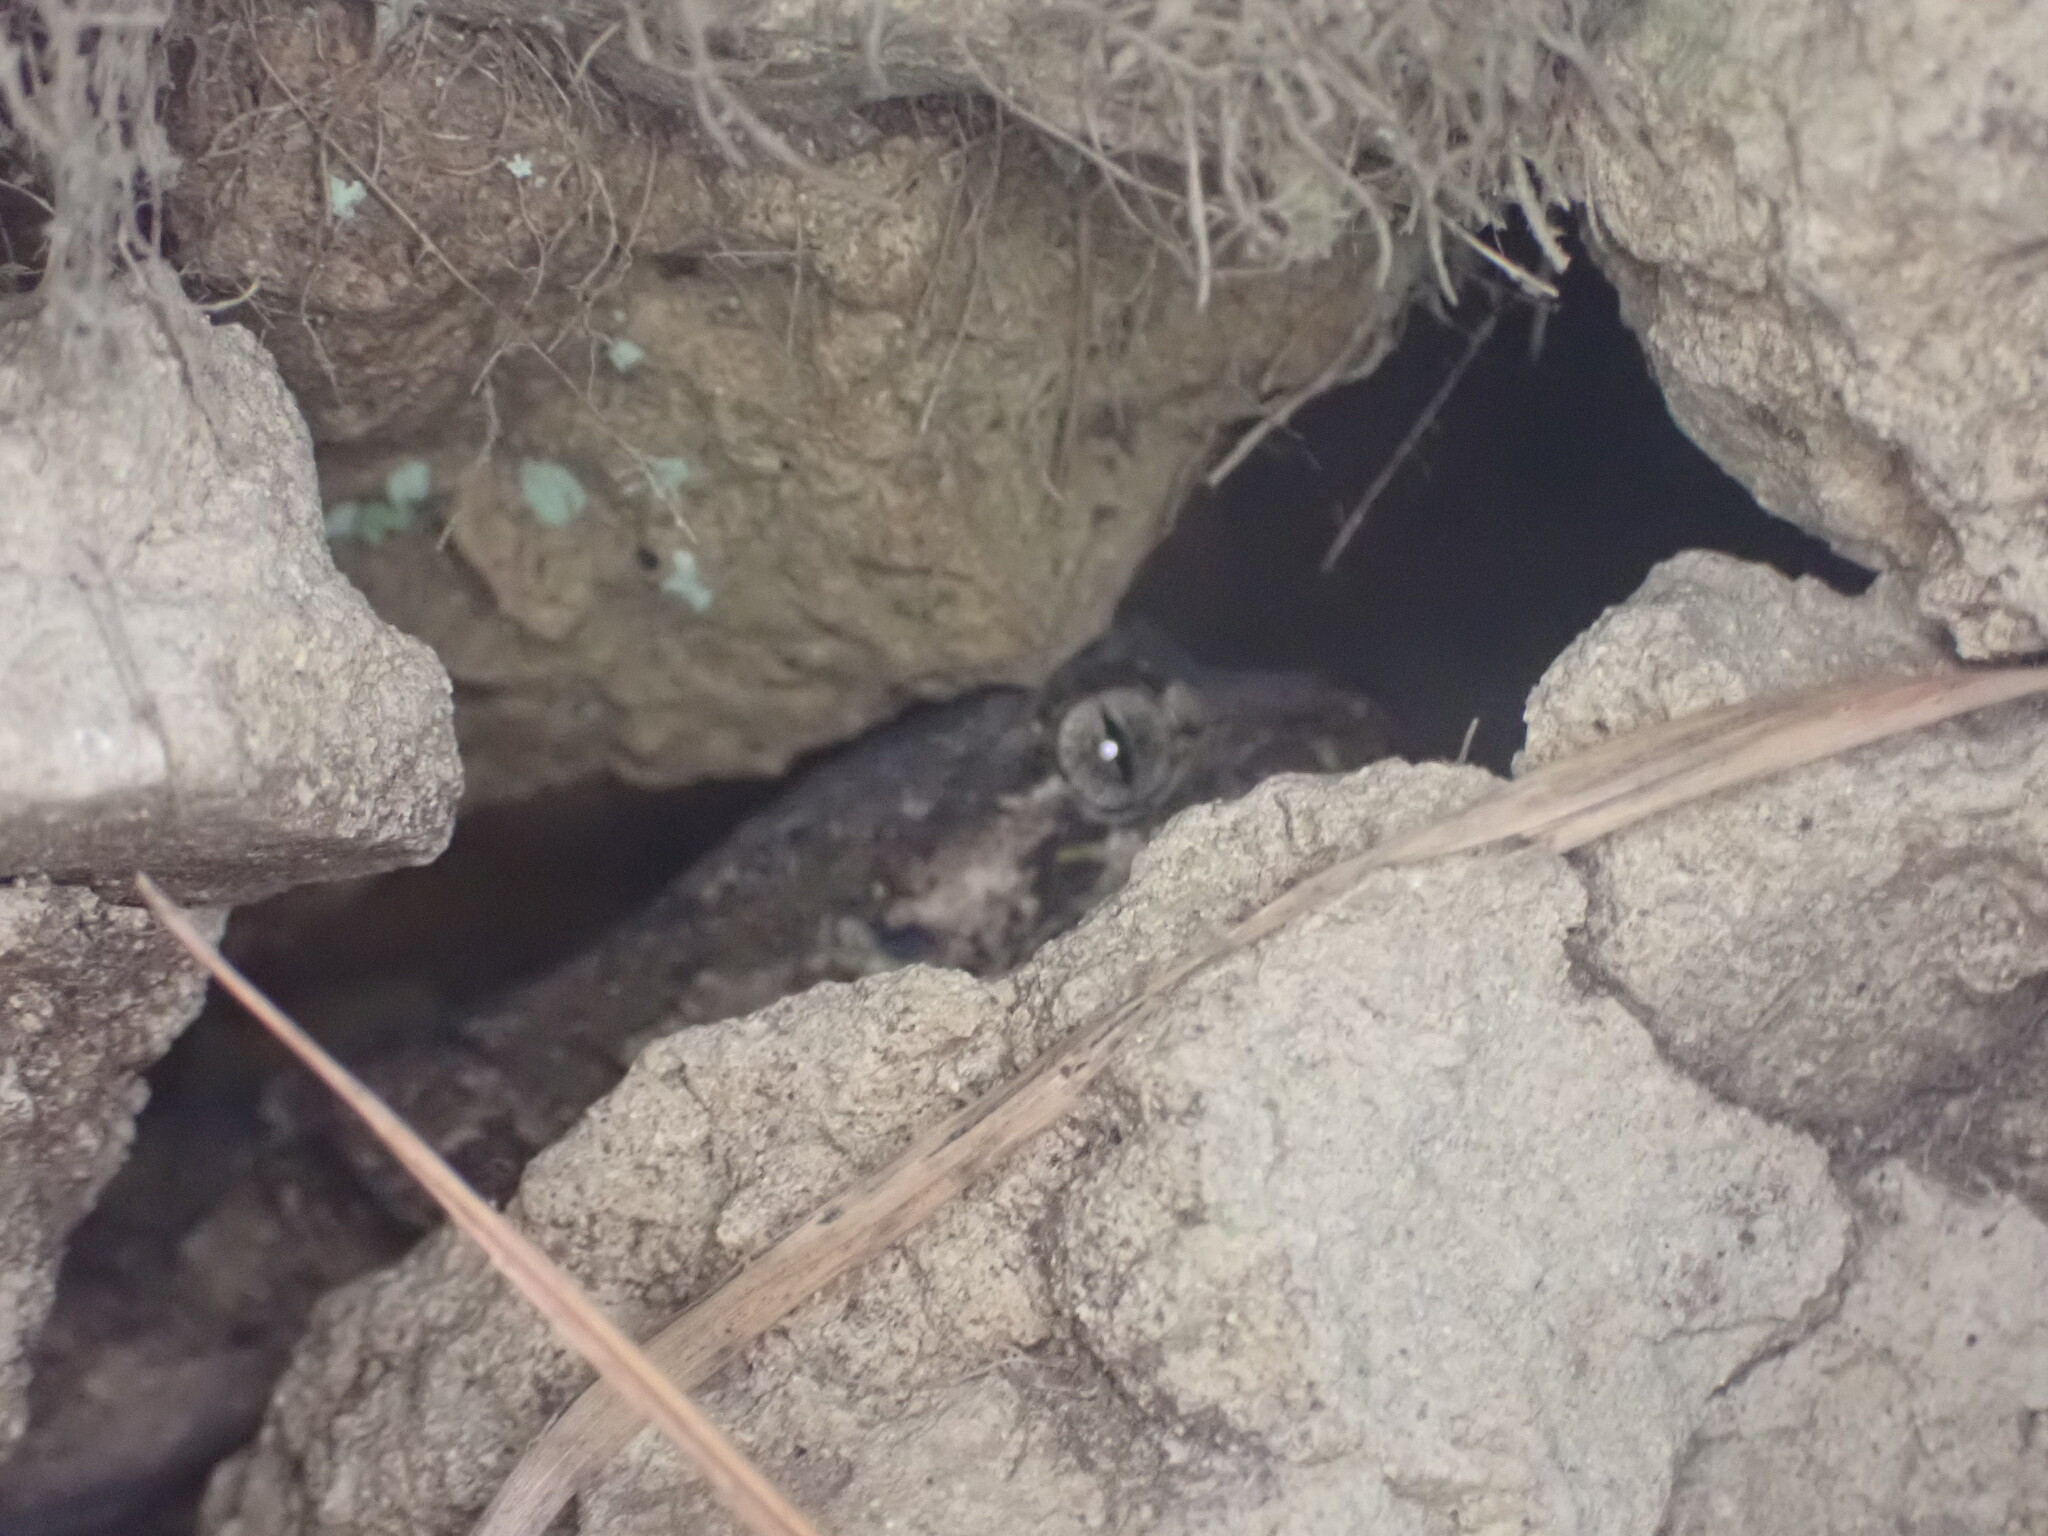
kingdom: Animalia
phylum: Chordata
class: Squamata
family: Diplodactylidae
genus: Mokopirirakau
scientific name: Mokopirirakau
